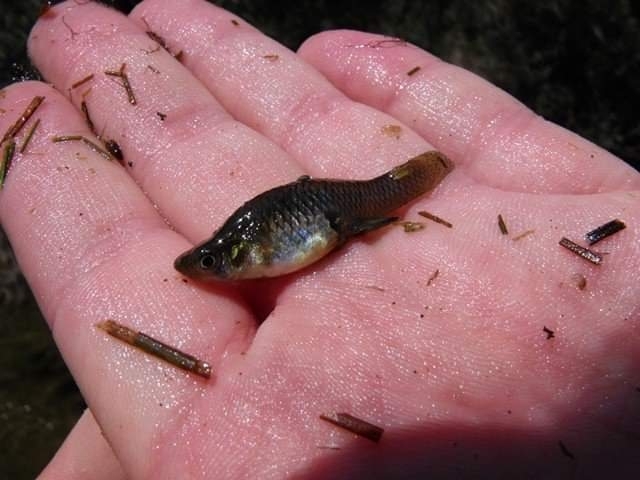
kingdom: Animalia
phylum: Chordata
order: Cyprinodontiformes
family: Poeciliidae
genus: Gambusia
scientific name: Gambusia holbrooki
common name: Eastern mosquitofish
